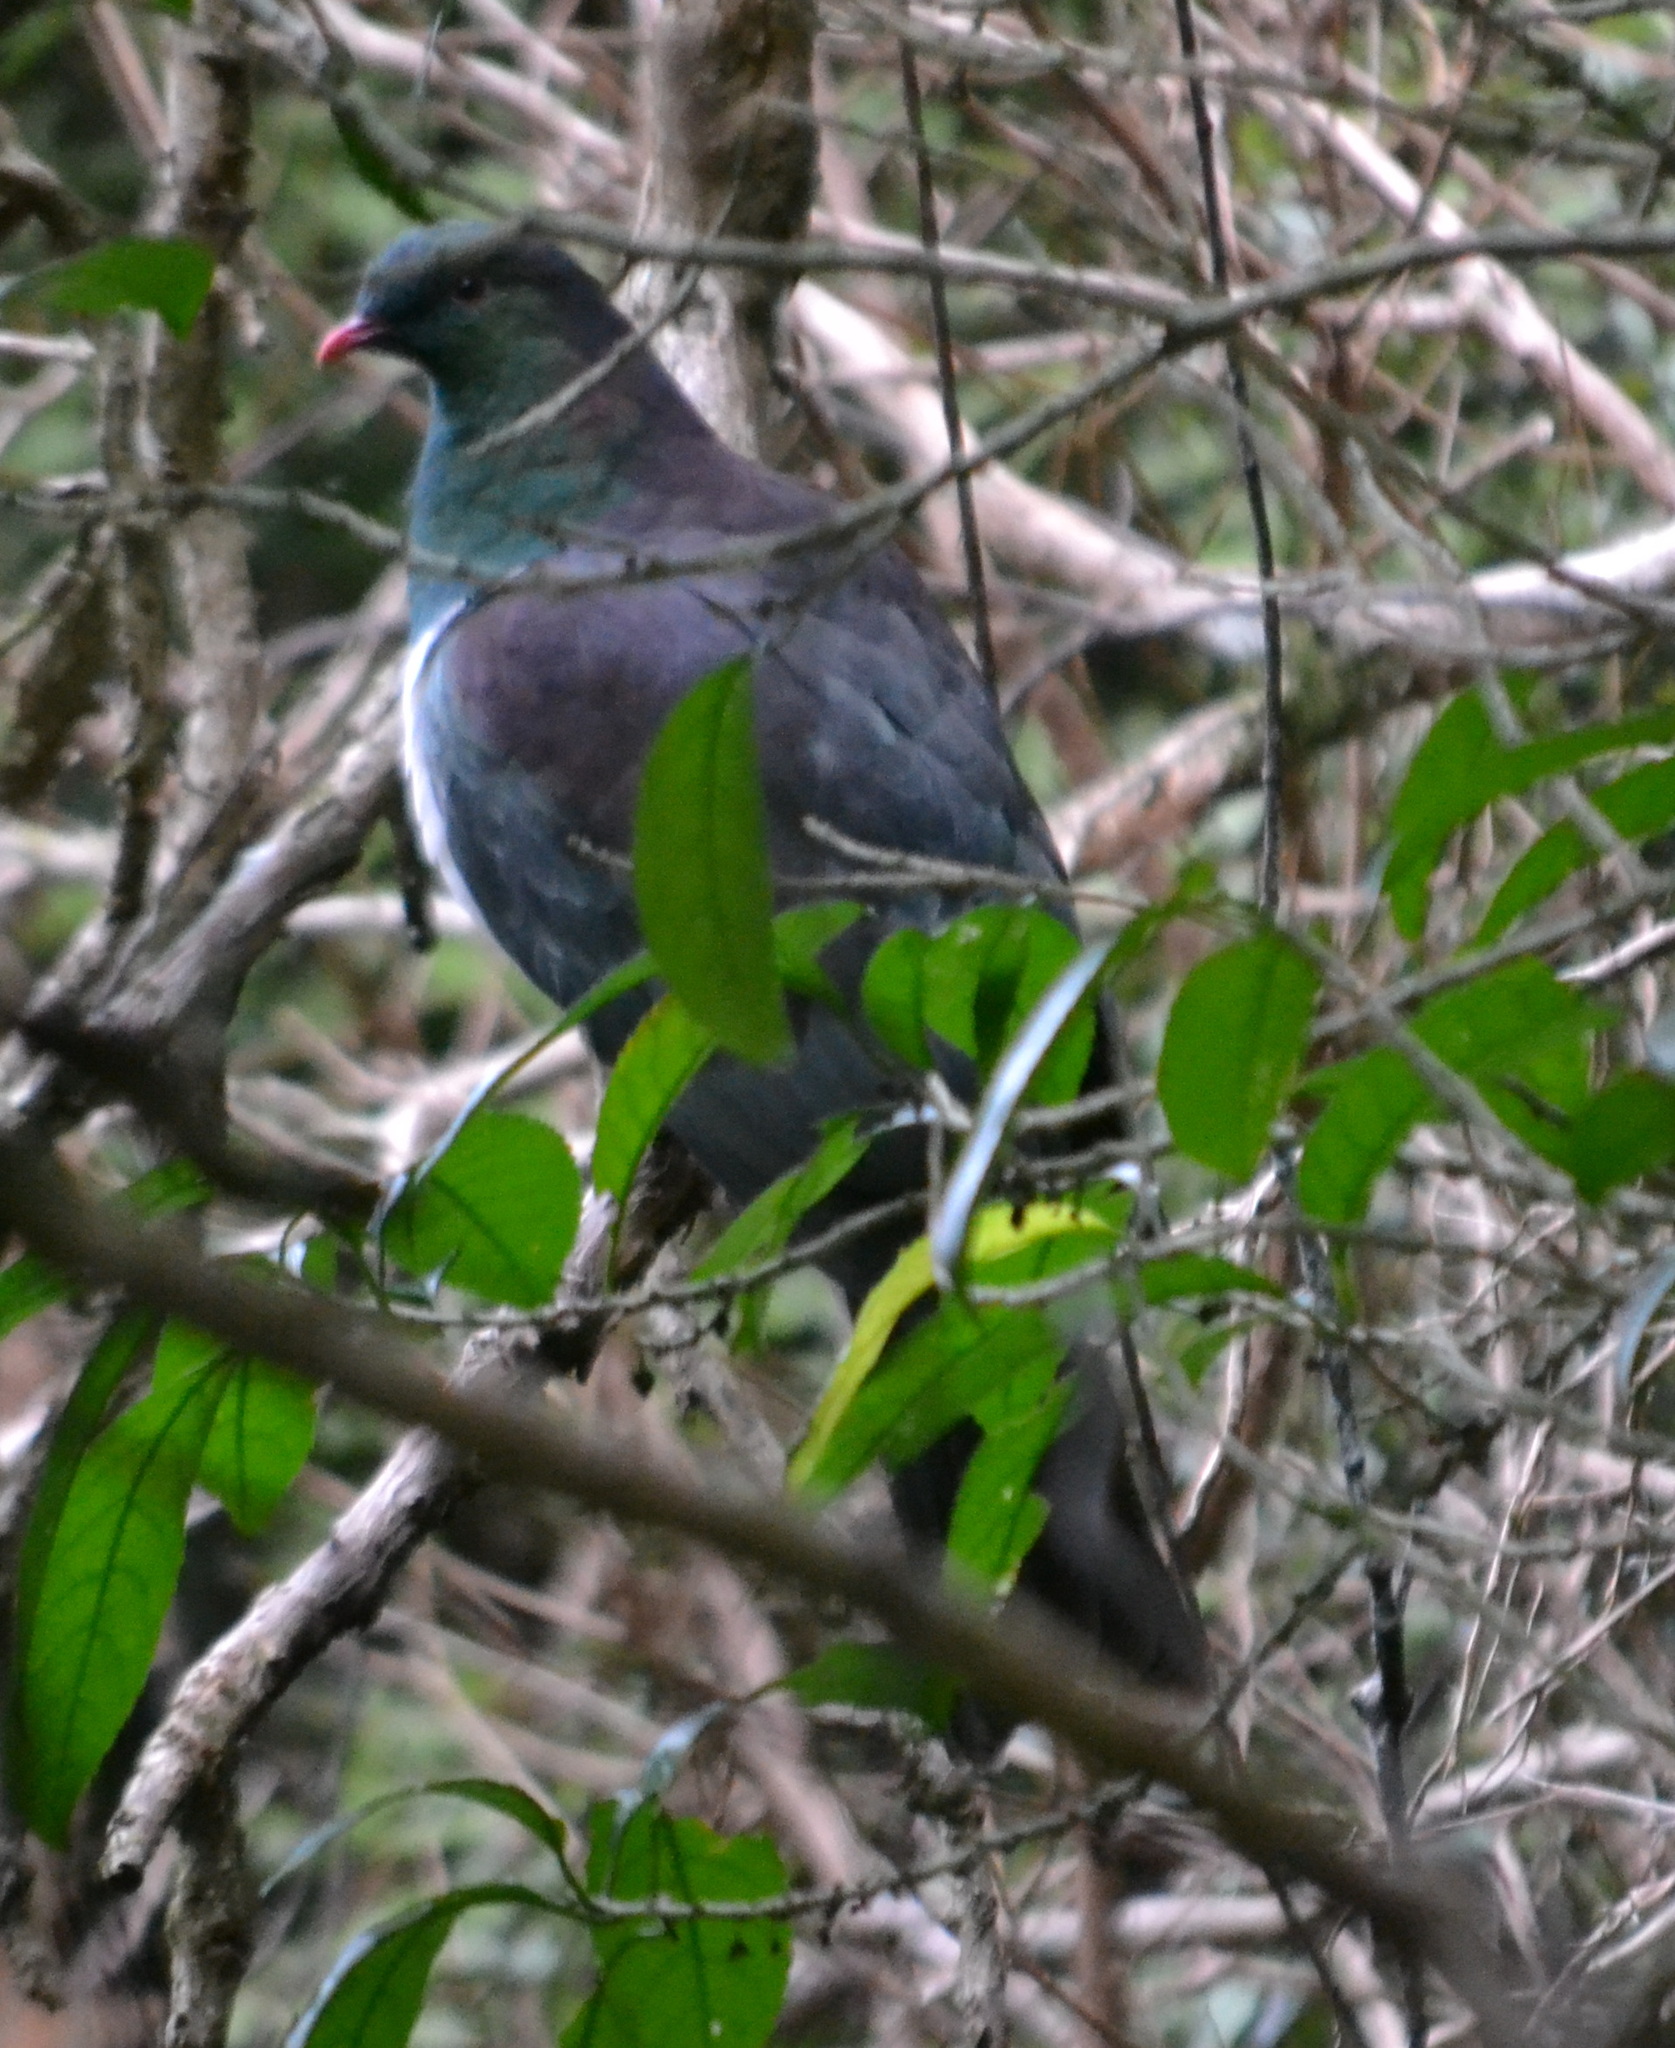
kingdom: Animalia
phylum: Chordata
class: Aves
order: Columbiformes
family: Columbidae
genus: Hemiphaga
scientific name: Hemiphaga novaeseelandiae
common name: New zealand pigeon
